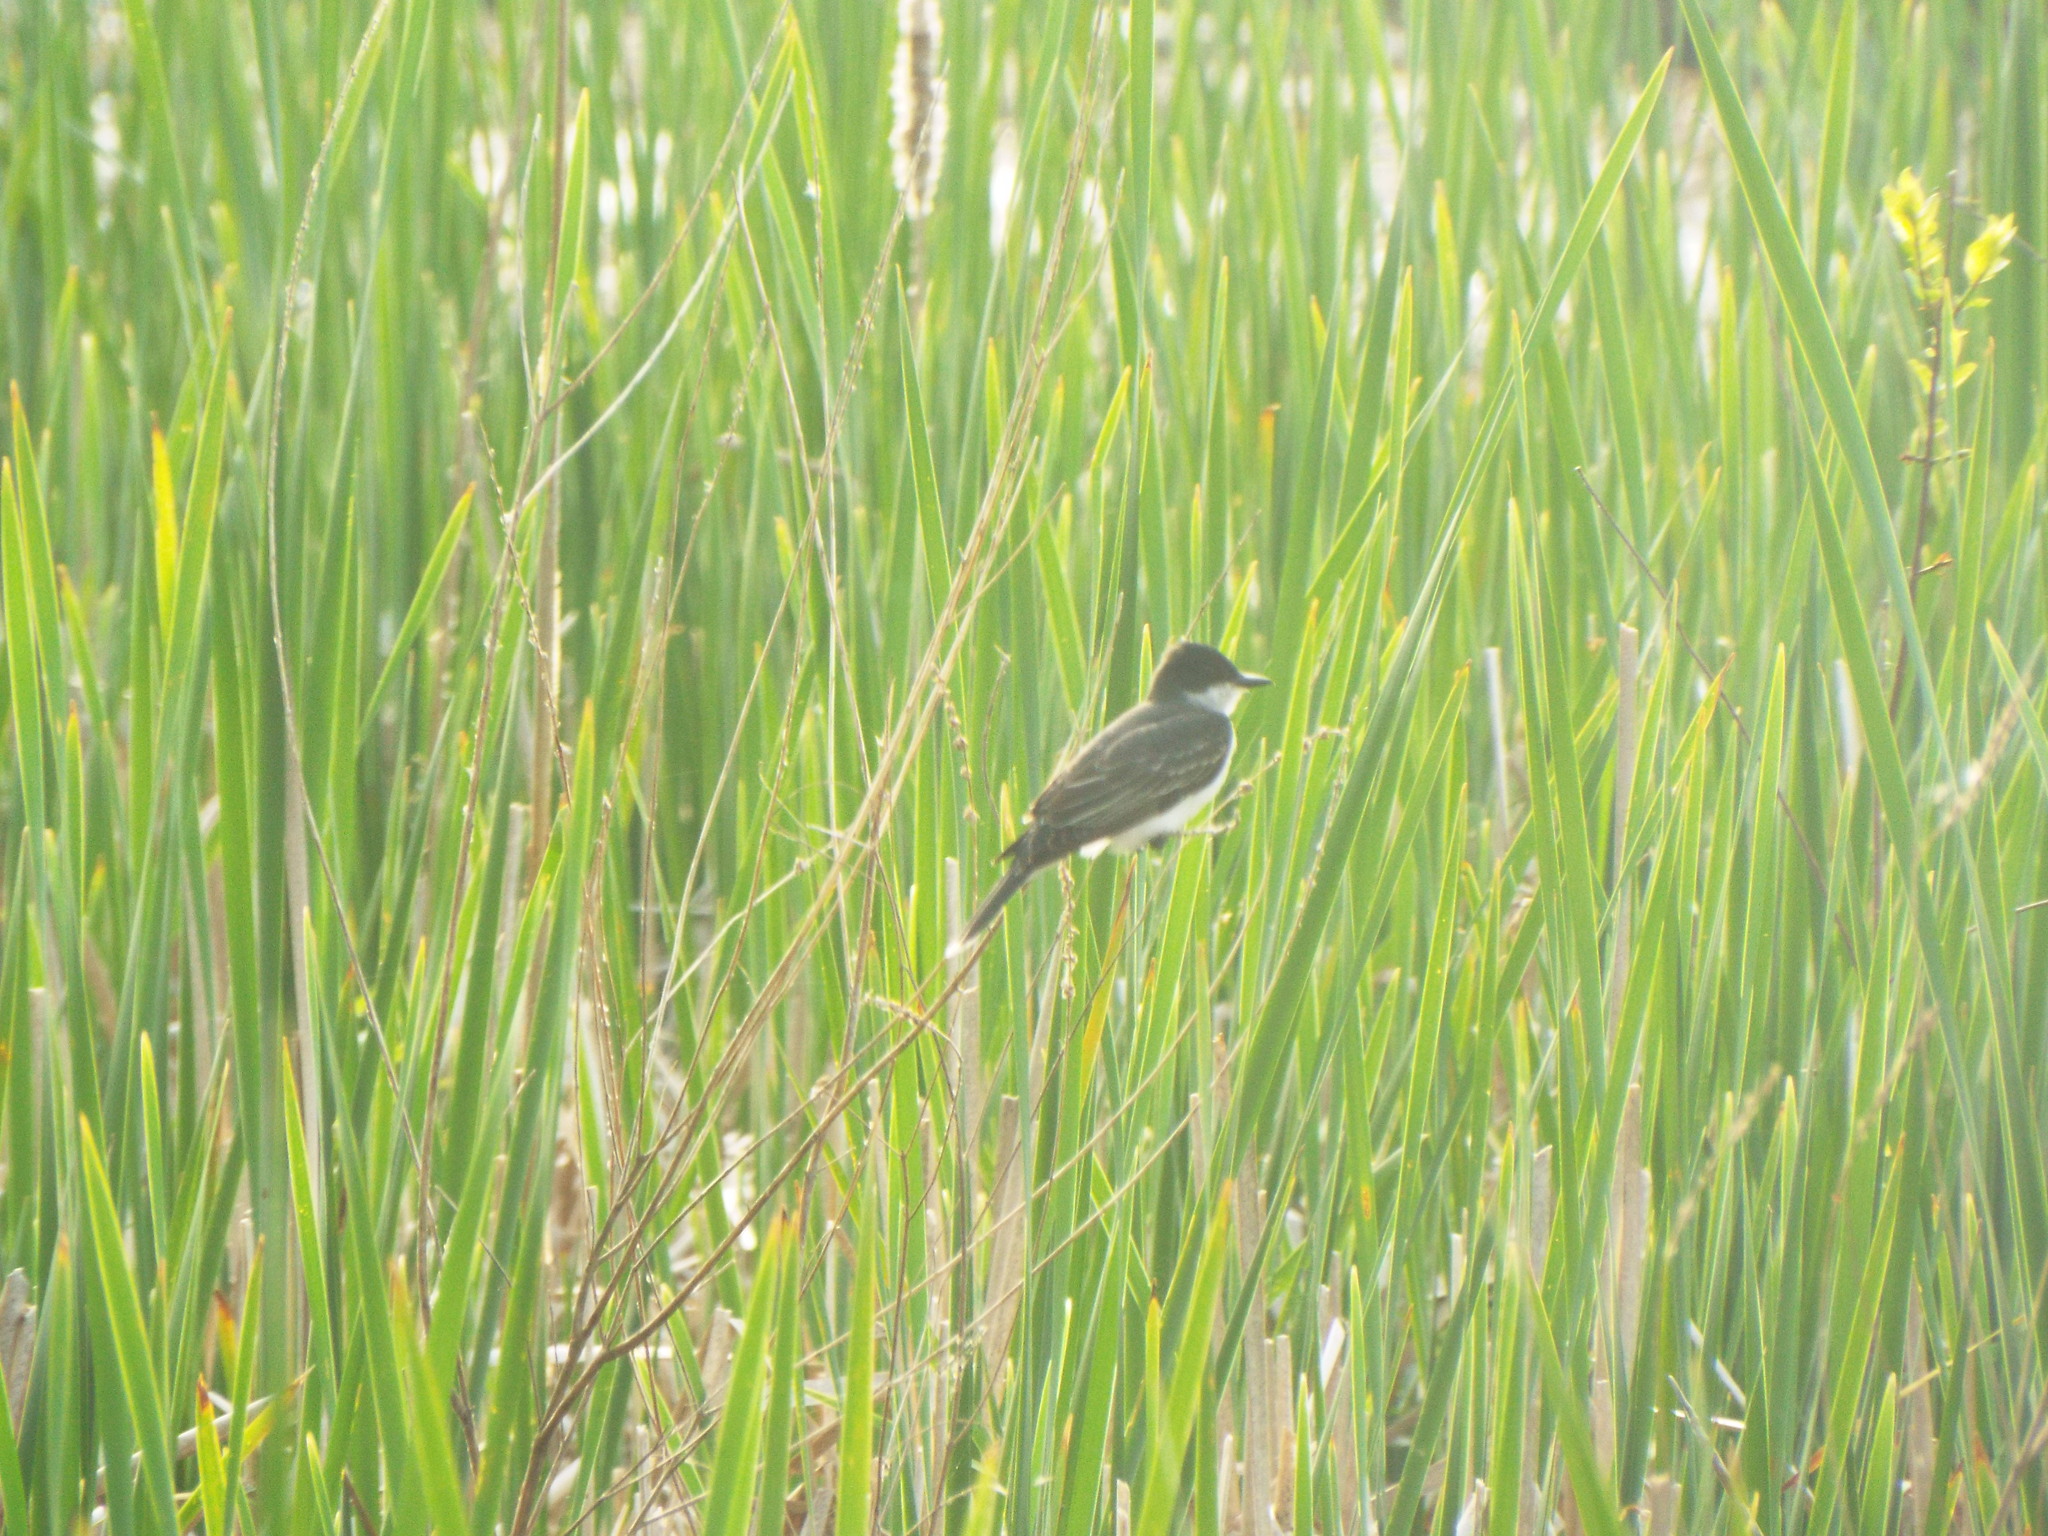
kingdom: Animalia
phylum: Chordata
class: Aves
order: Passeriformes
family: Tyrannidae
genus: Tyrannus
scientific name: Tyrannus tyrannus
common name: Eastern kingbird
